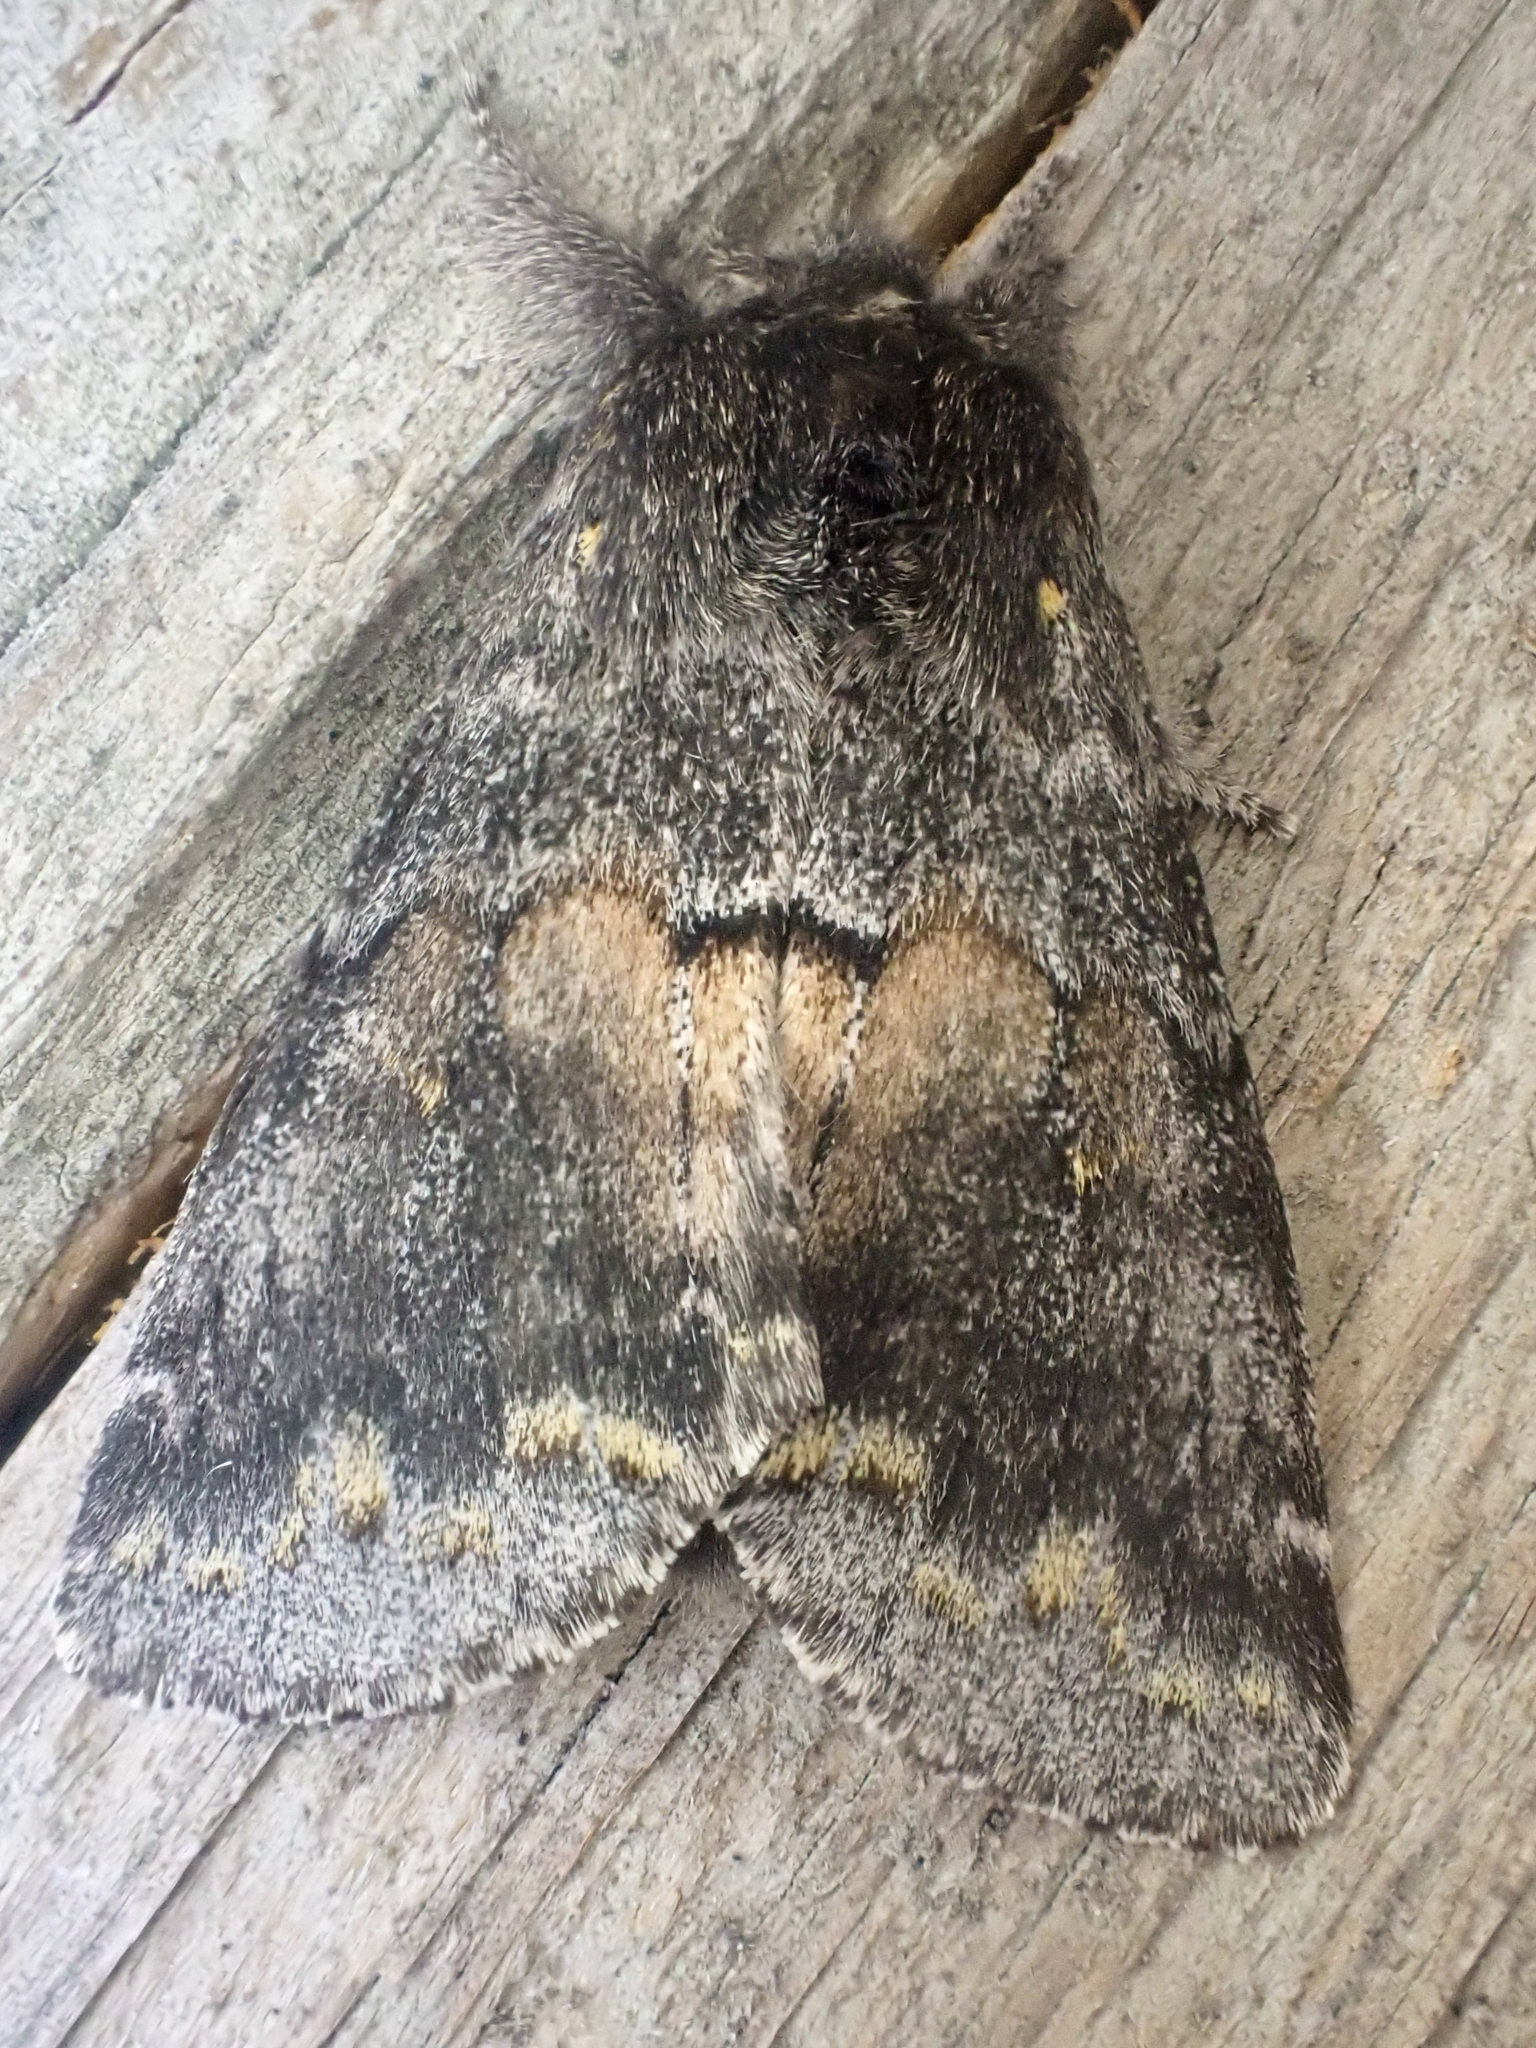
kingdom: Animalia
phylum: Arthropoda
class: Insecta
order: Lepidoptera
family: Notodontidae
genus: Gluphisia
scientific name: Gluphisia severa
